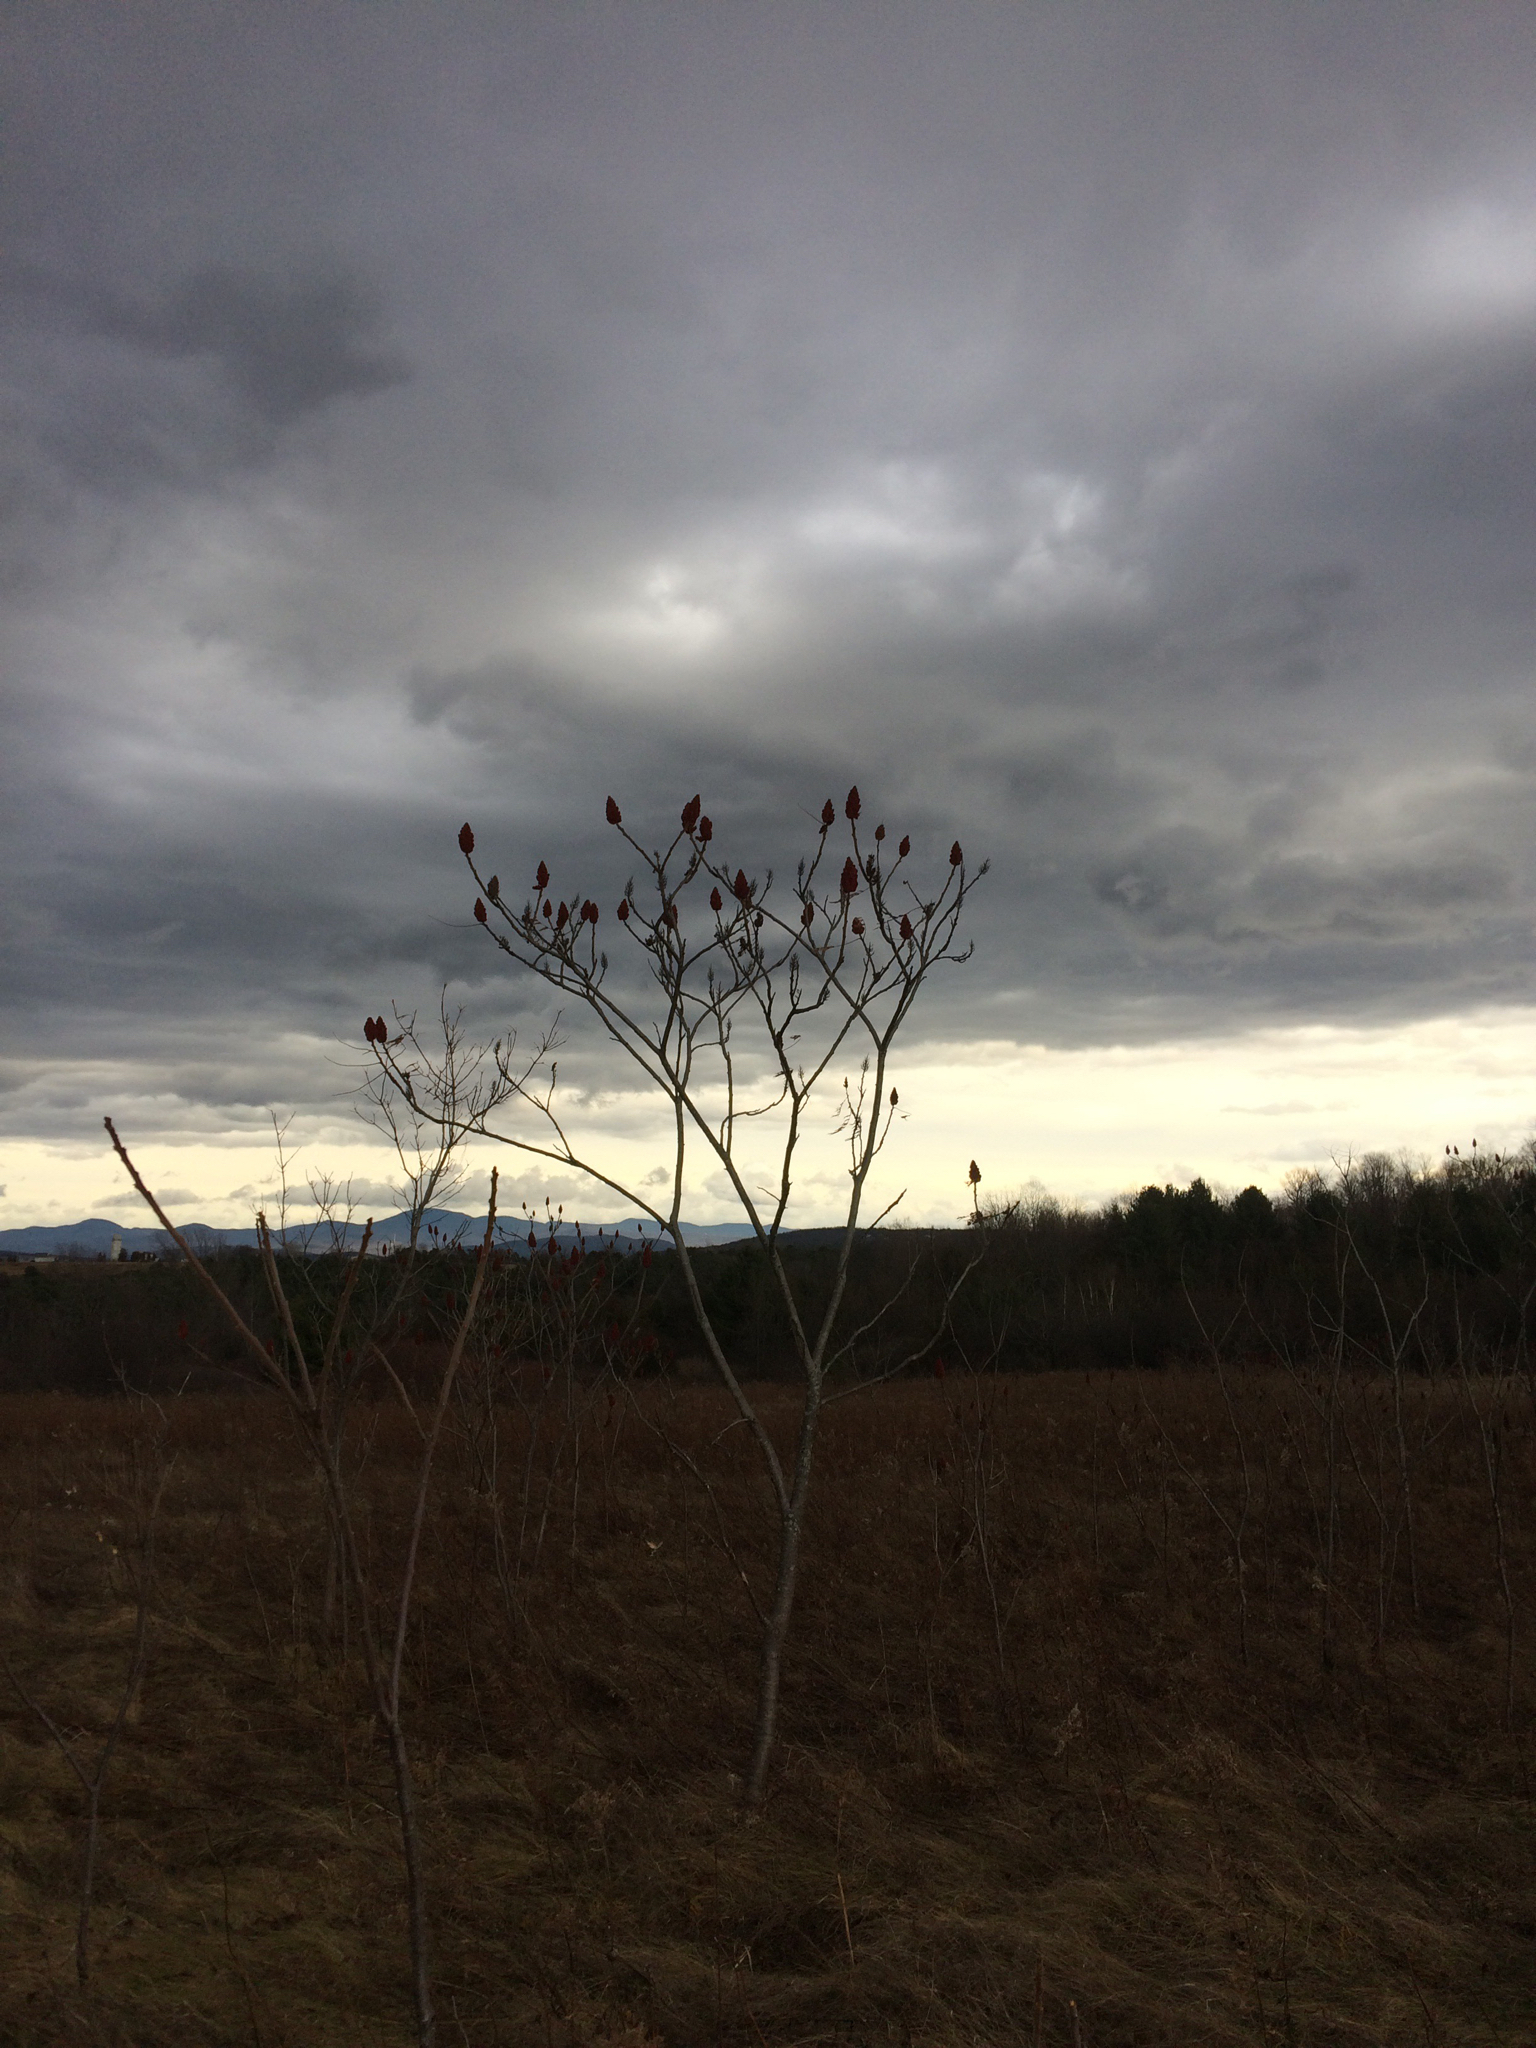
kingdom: Plantae
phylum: Tracheophyta
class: Magnoliopsida
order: Sapindales
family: Anacardiaceae
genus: Rhus
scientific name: Rhus typhina
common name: Staghorn sumac
